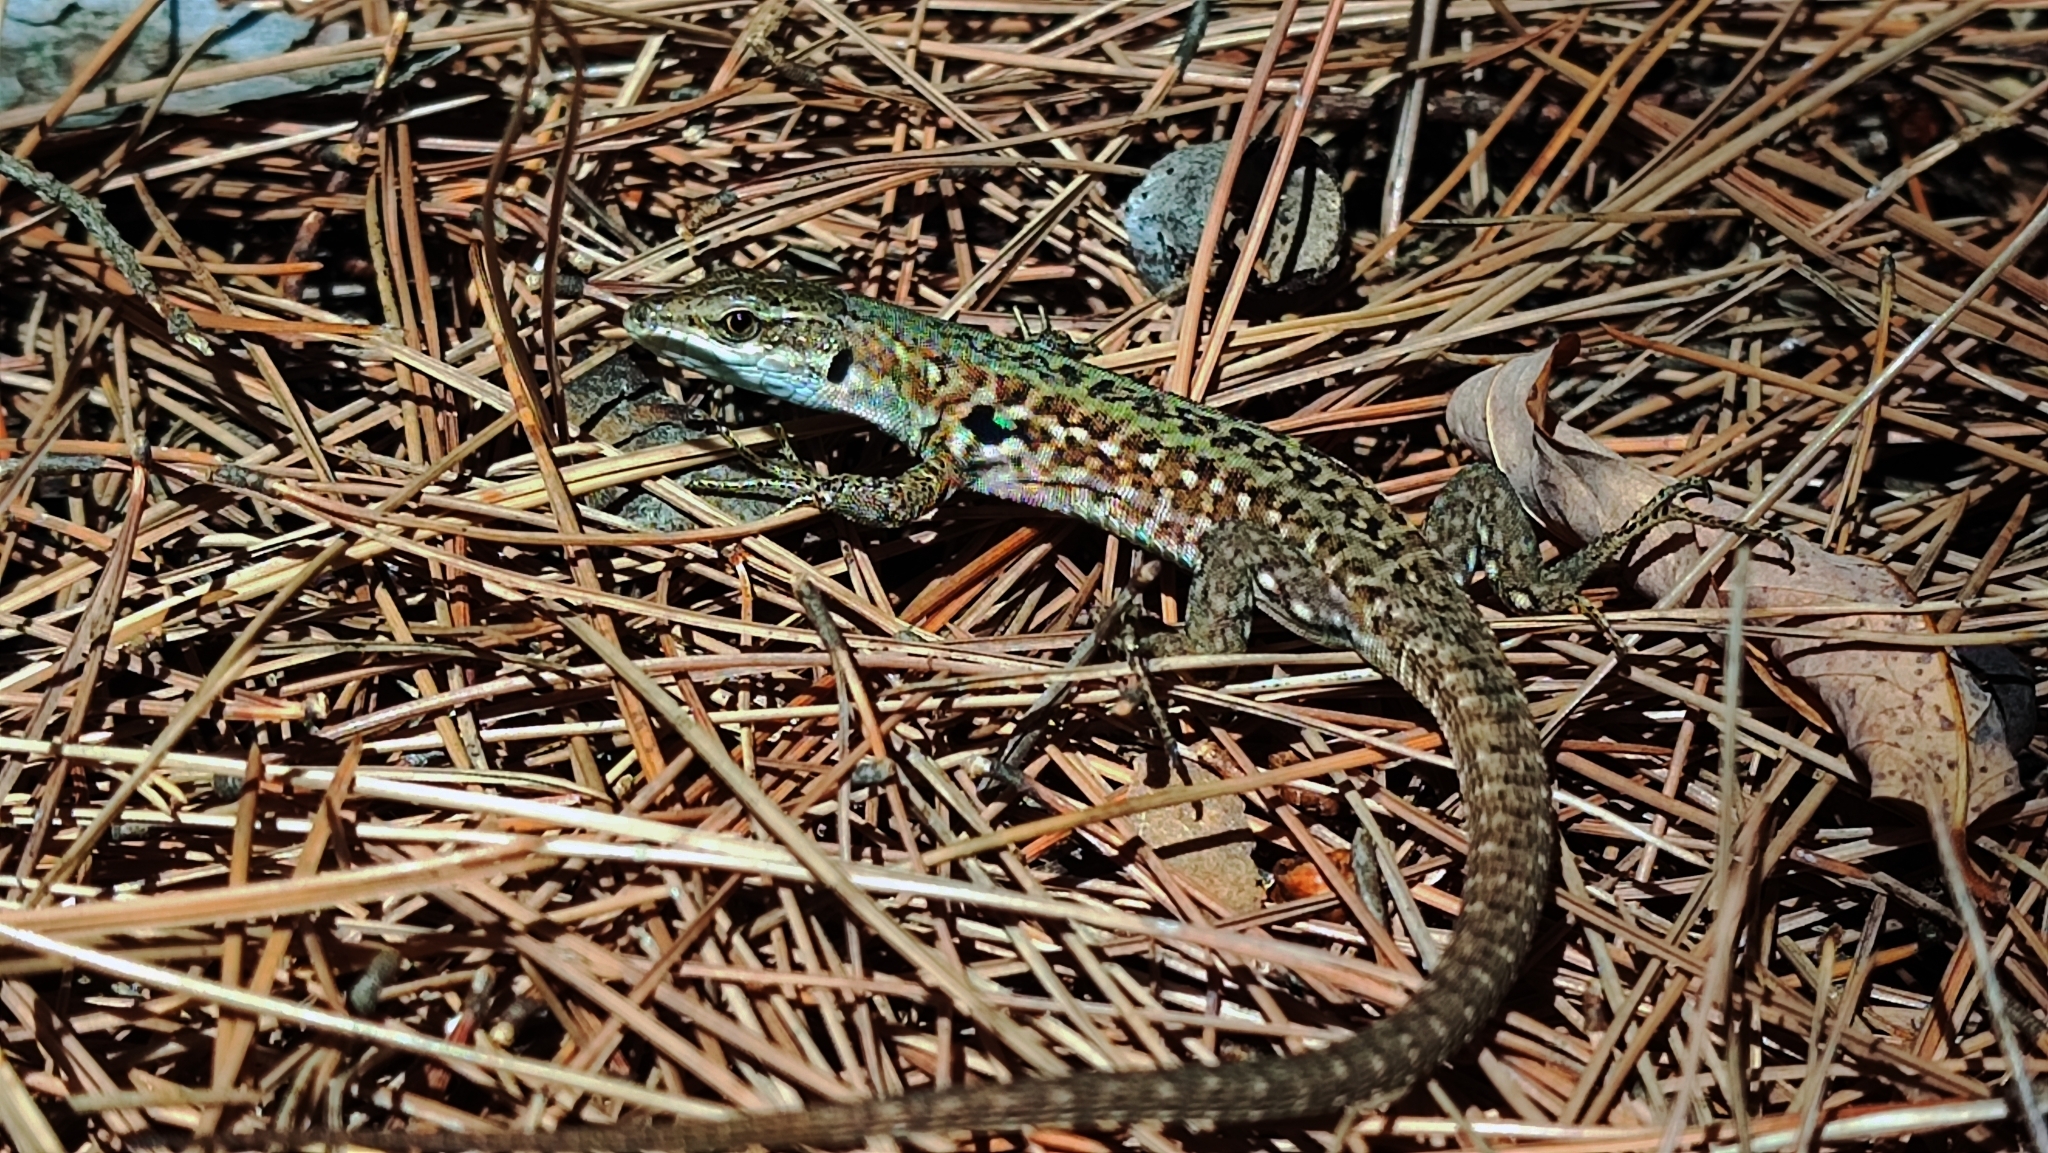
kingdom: Animalia
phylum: Chordata
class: Squamata
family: Lacertidae
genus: Podarcis
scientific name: Podarcis siculus
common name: Italian wall lizard
